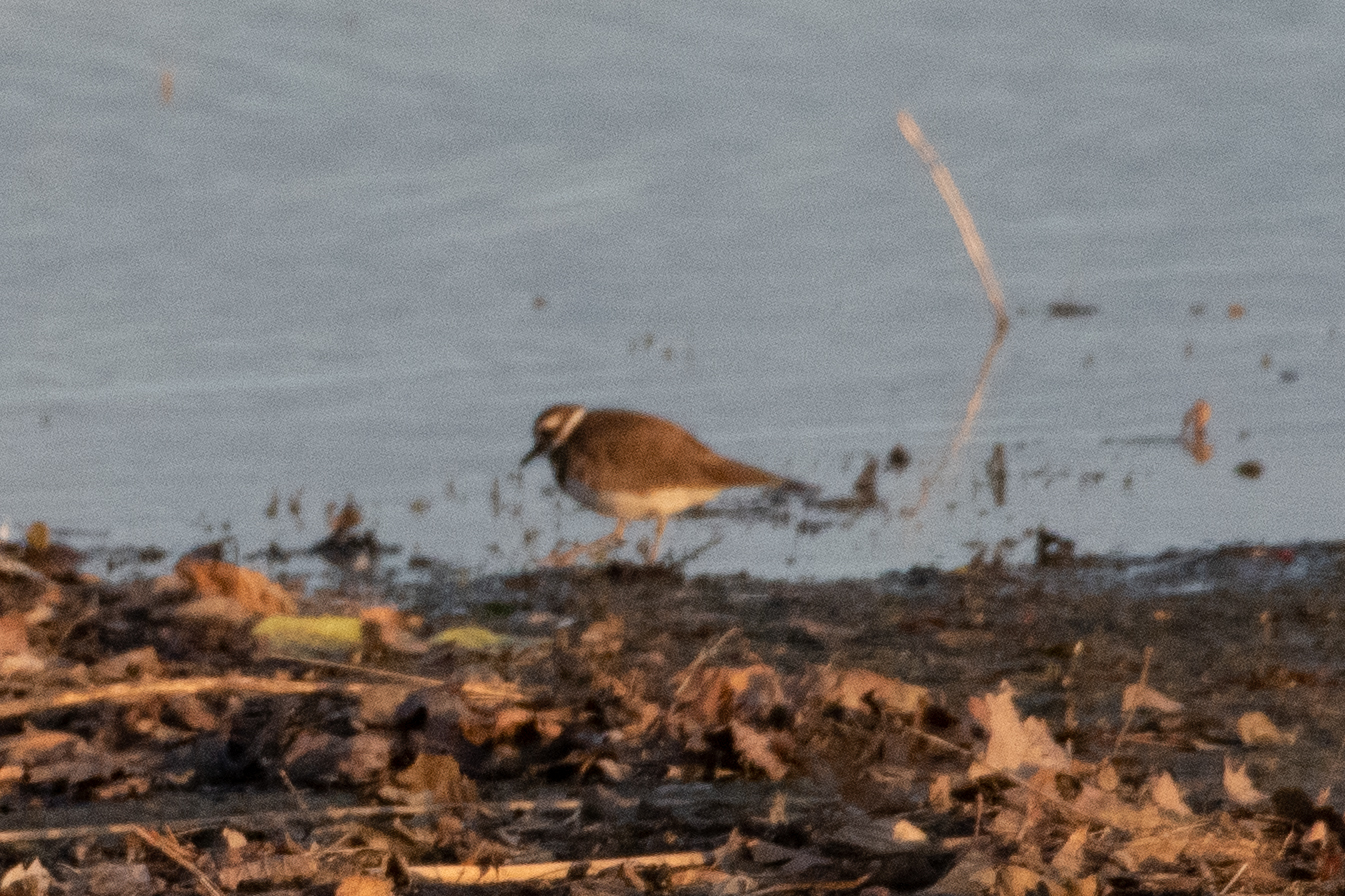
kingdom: Animalia
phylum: Chordata
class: Aves
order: Charadriiformes
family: Charadriidae
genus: Charadrius
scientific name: Charadrius vociferus
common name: Killdeer
